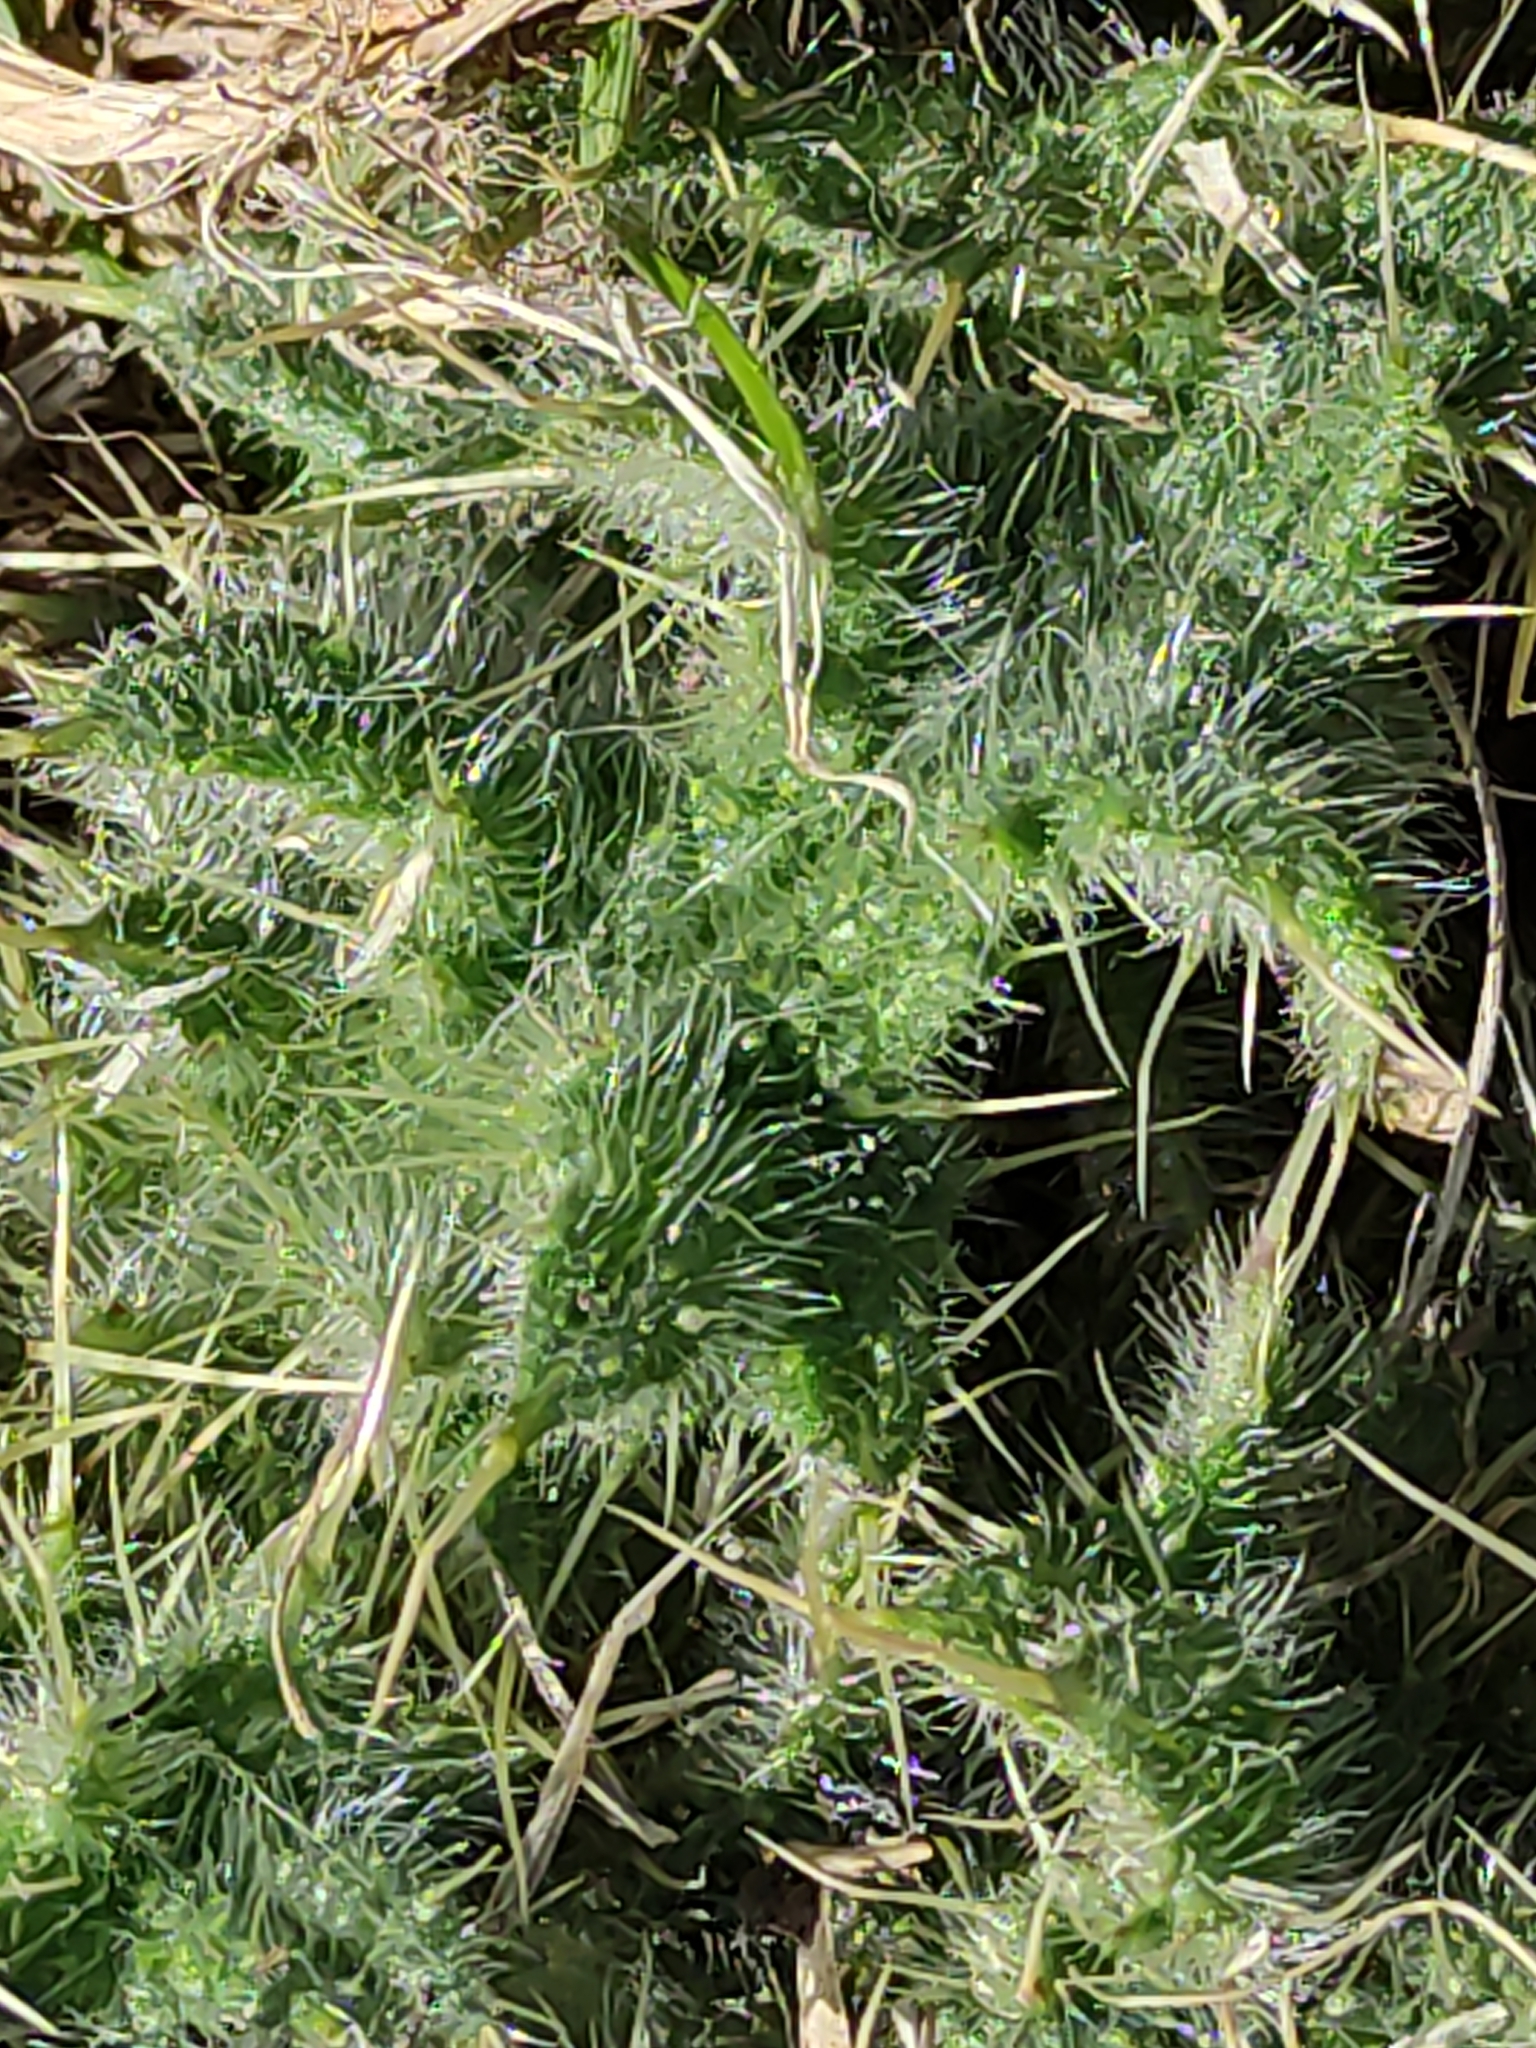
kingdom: Plantae
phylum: Tracheophyta
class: Magnoliopsida
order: Asterales
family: Asteraceae
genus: Cirsium
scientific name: Cirsium vulgare
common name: Bull thistle
